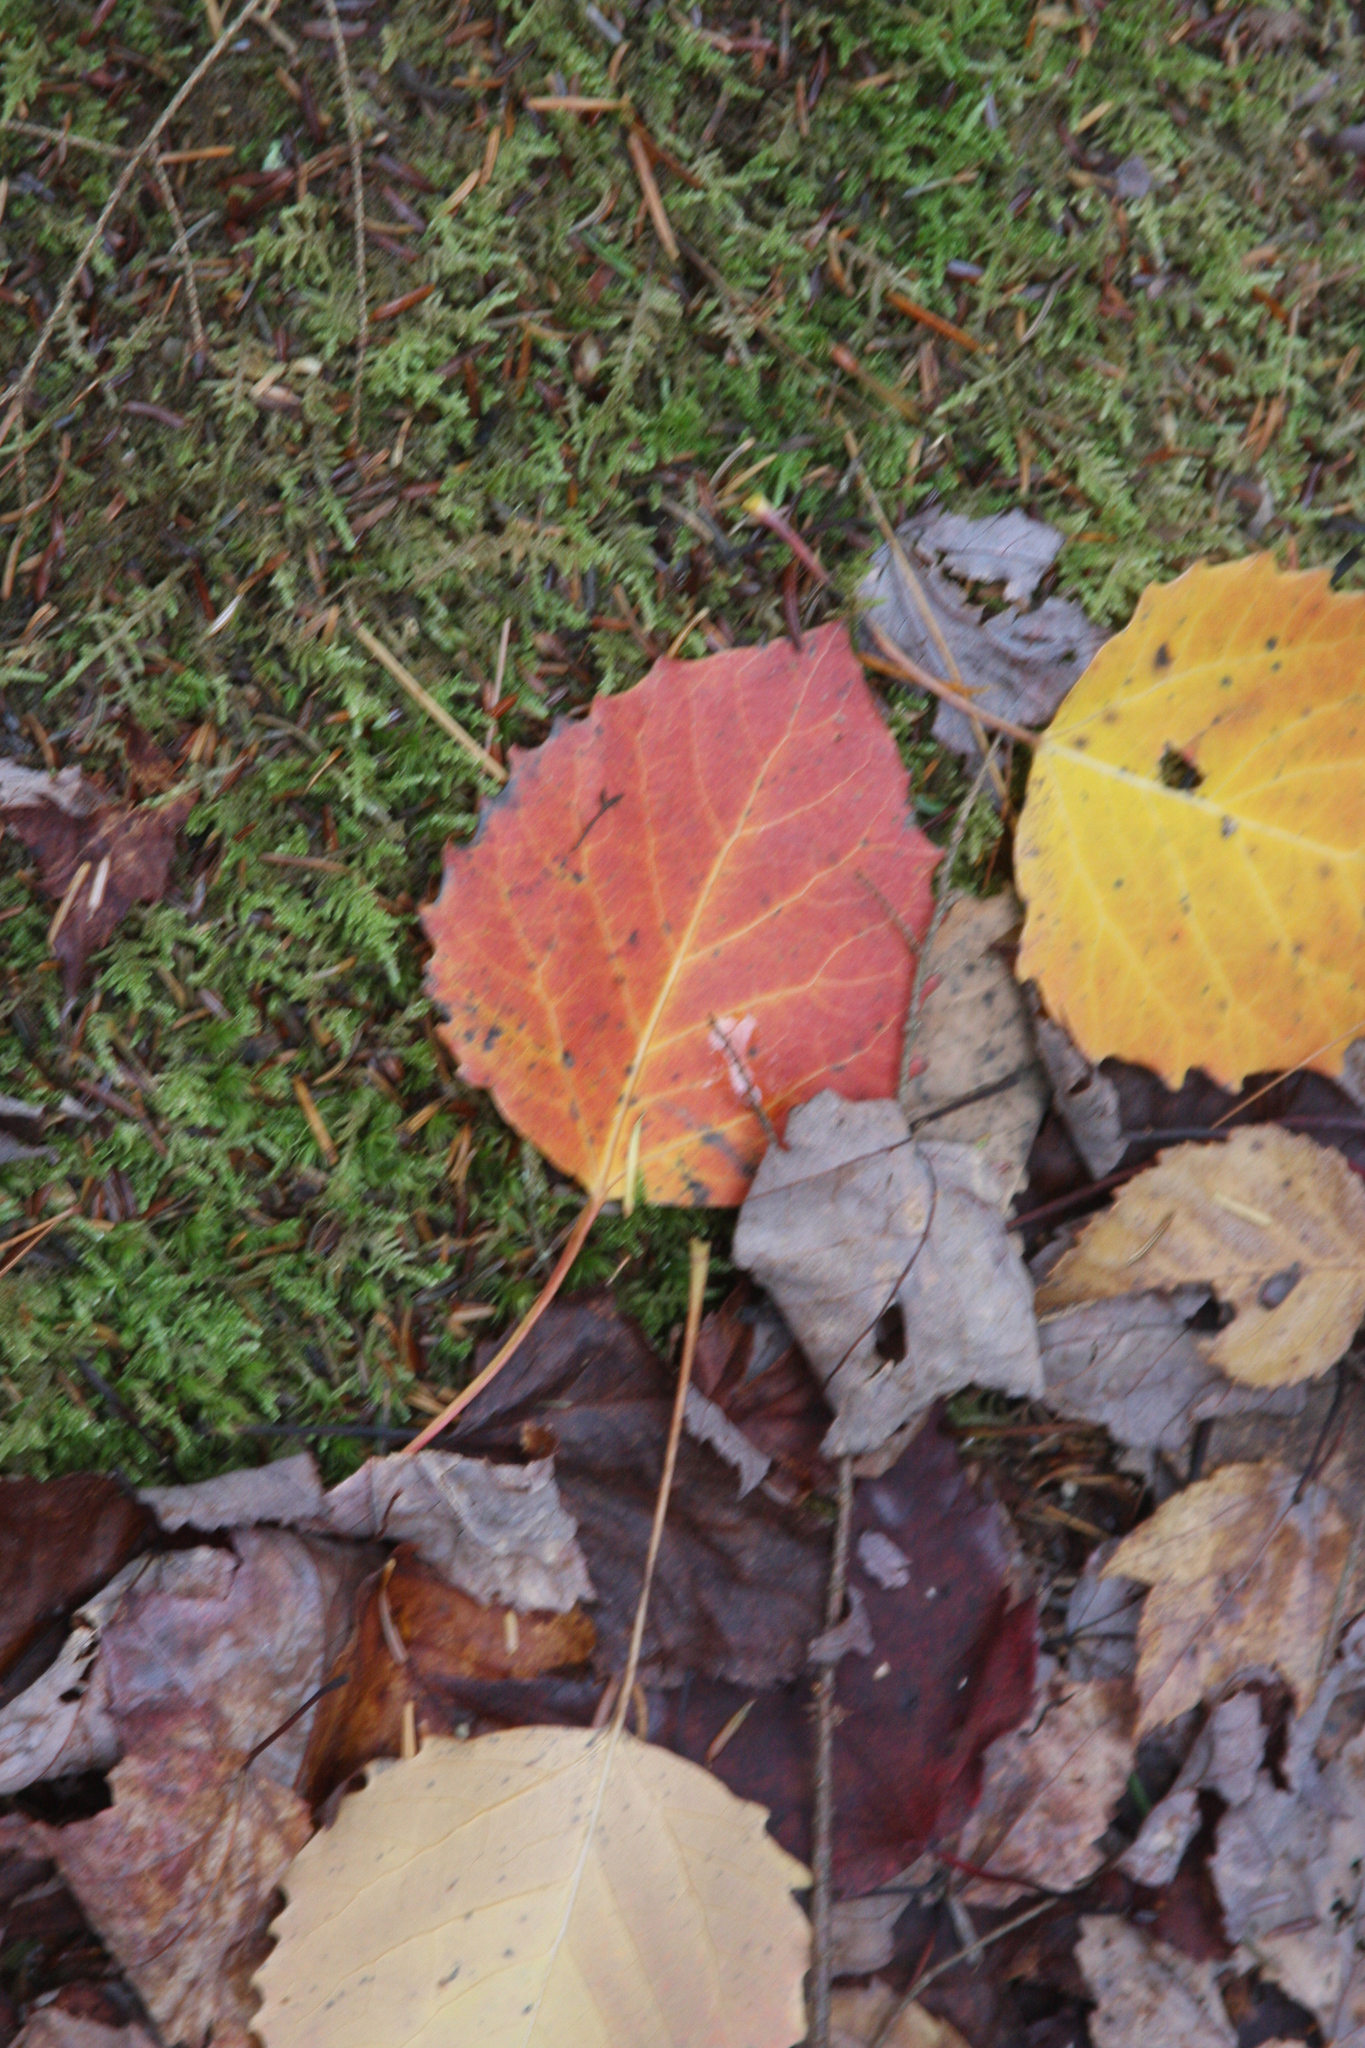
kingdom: Plantae
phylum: Tracheophyta
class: Magnoliopsida
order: Malpighiales
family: Salicaceae
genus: Populus
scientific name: Populus grandidentata
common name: Bigtooth aspen
